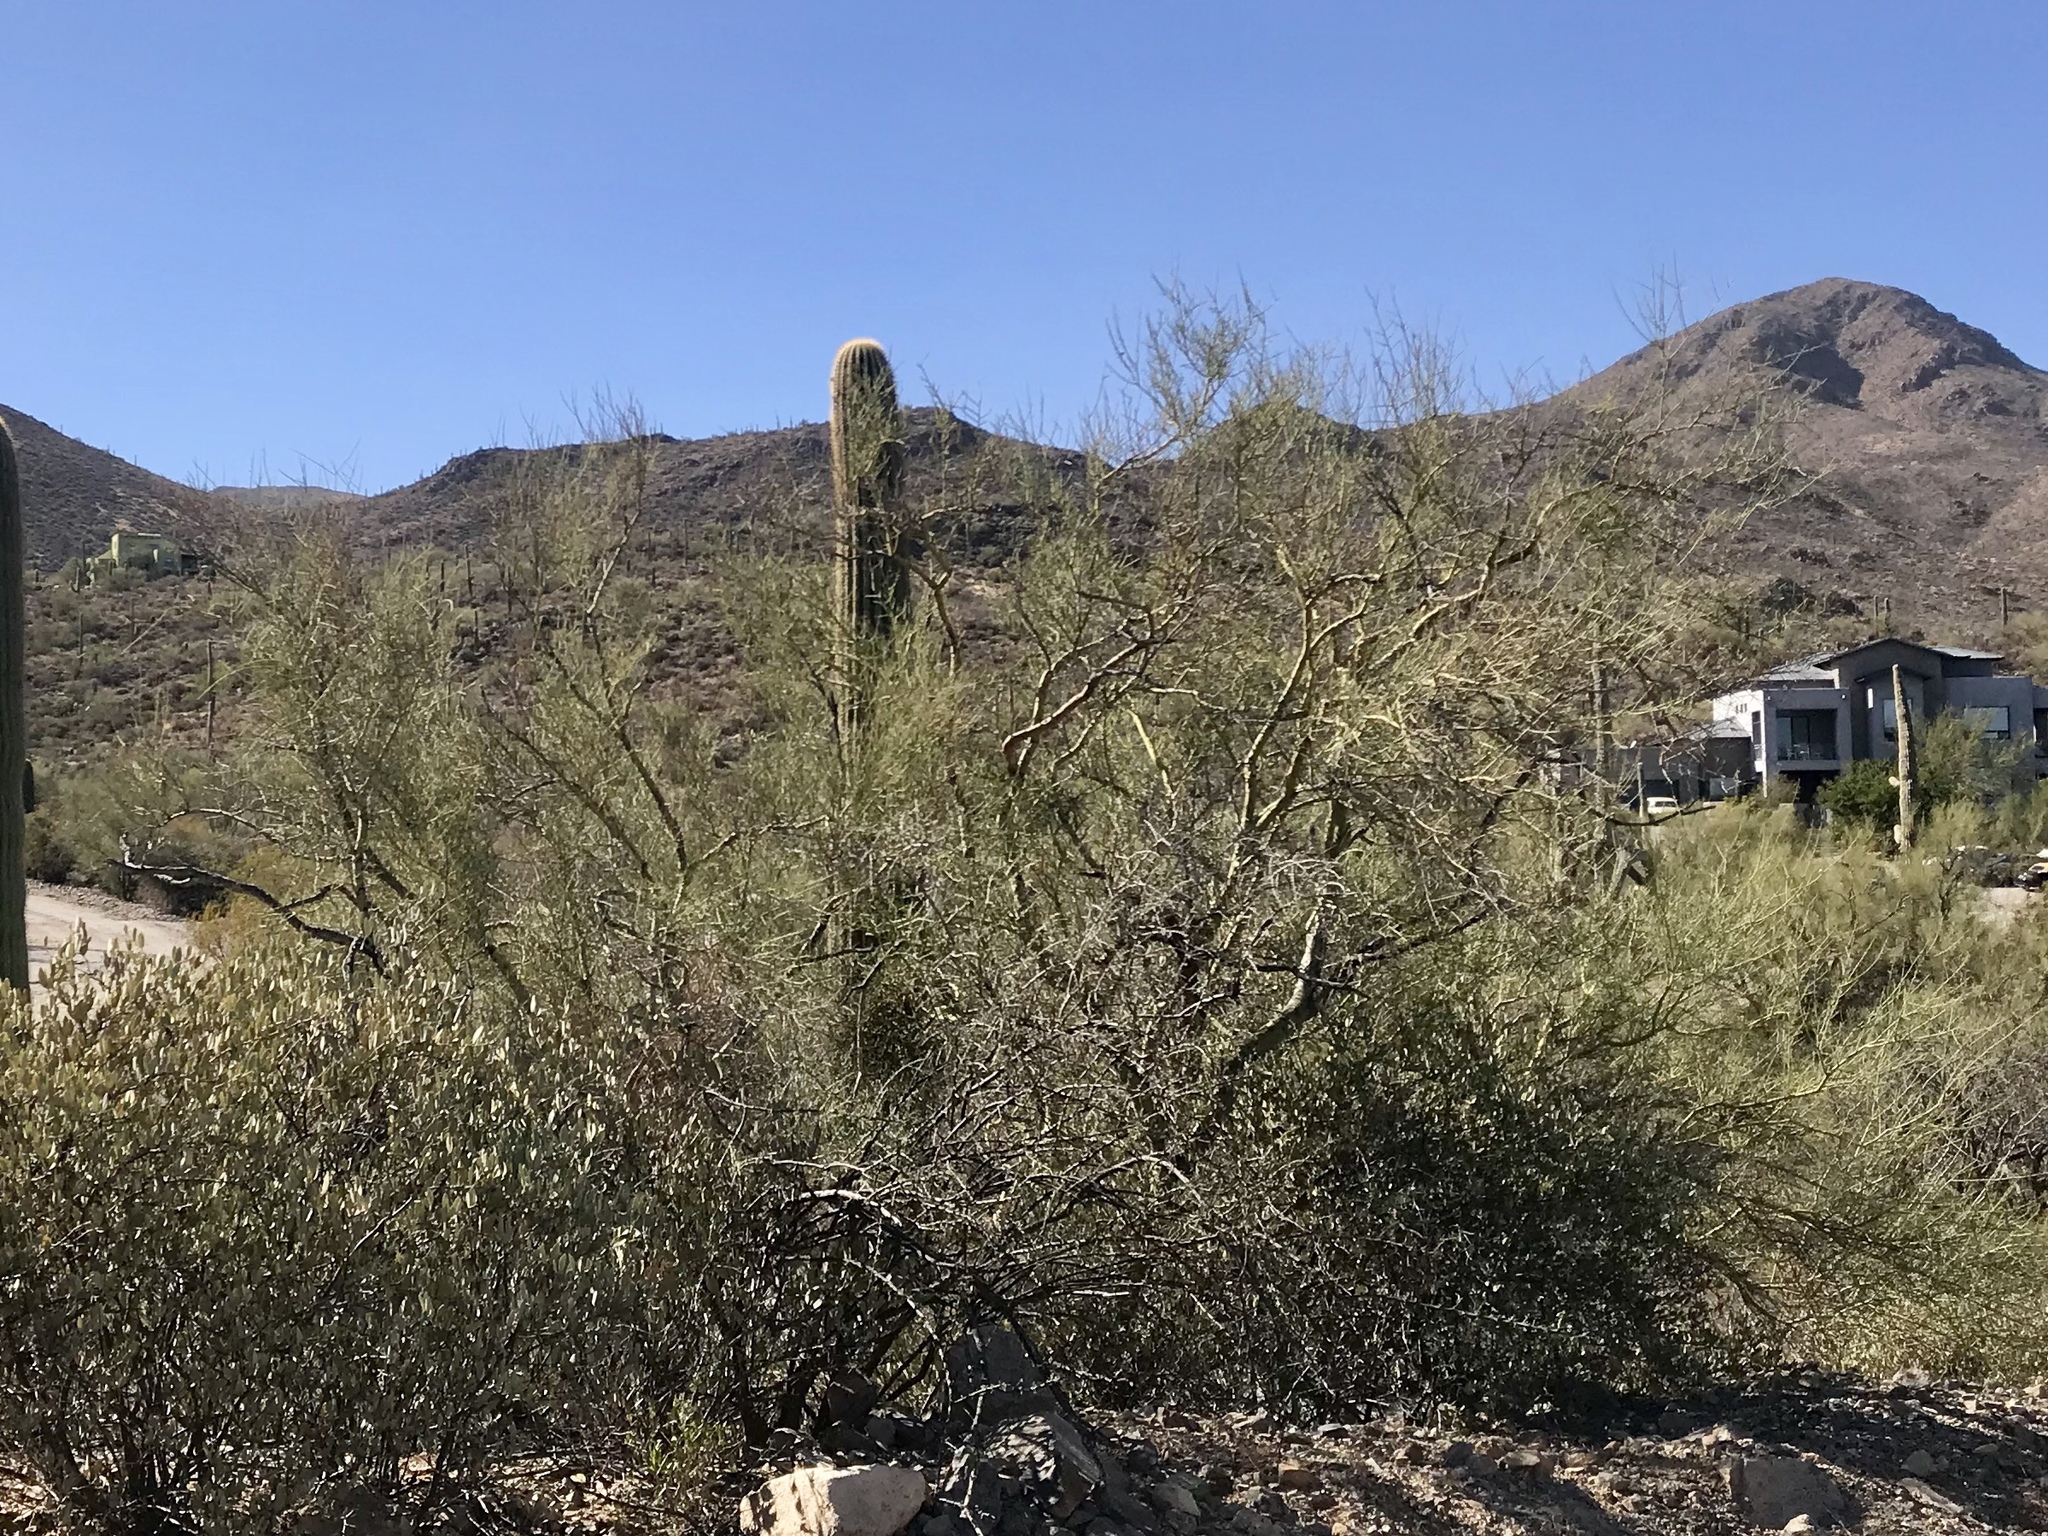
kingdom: Plantae
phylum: Tracheophyta
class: Magnoliopsida
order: Fabales
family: Fabaceae
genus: Parkinsonia
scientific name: Parkinsonia microphylla
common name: Yellow paloverde
